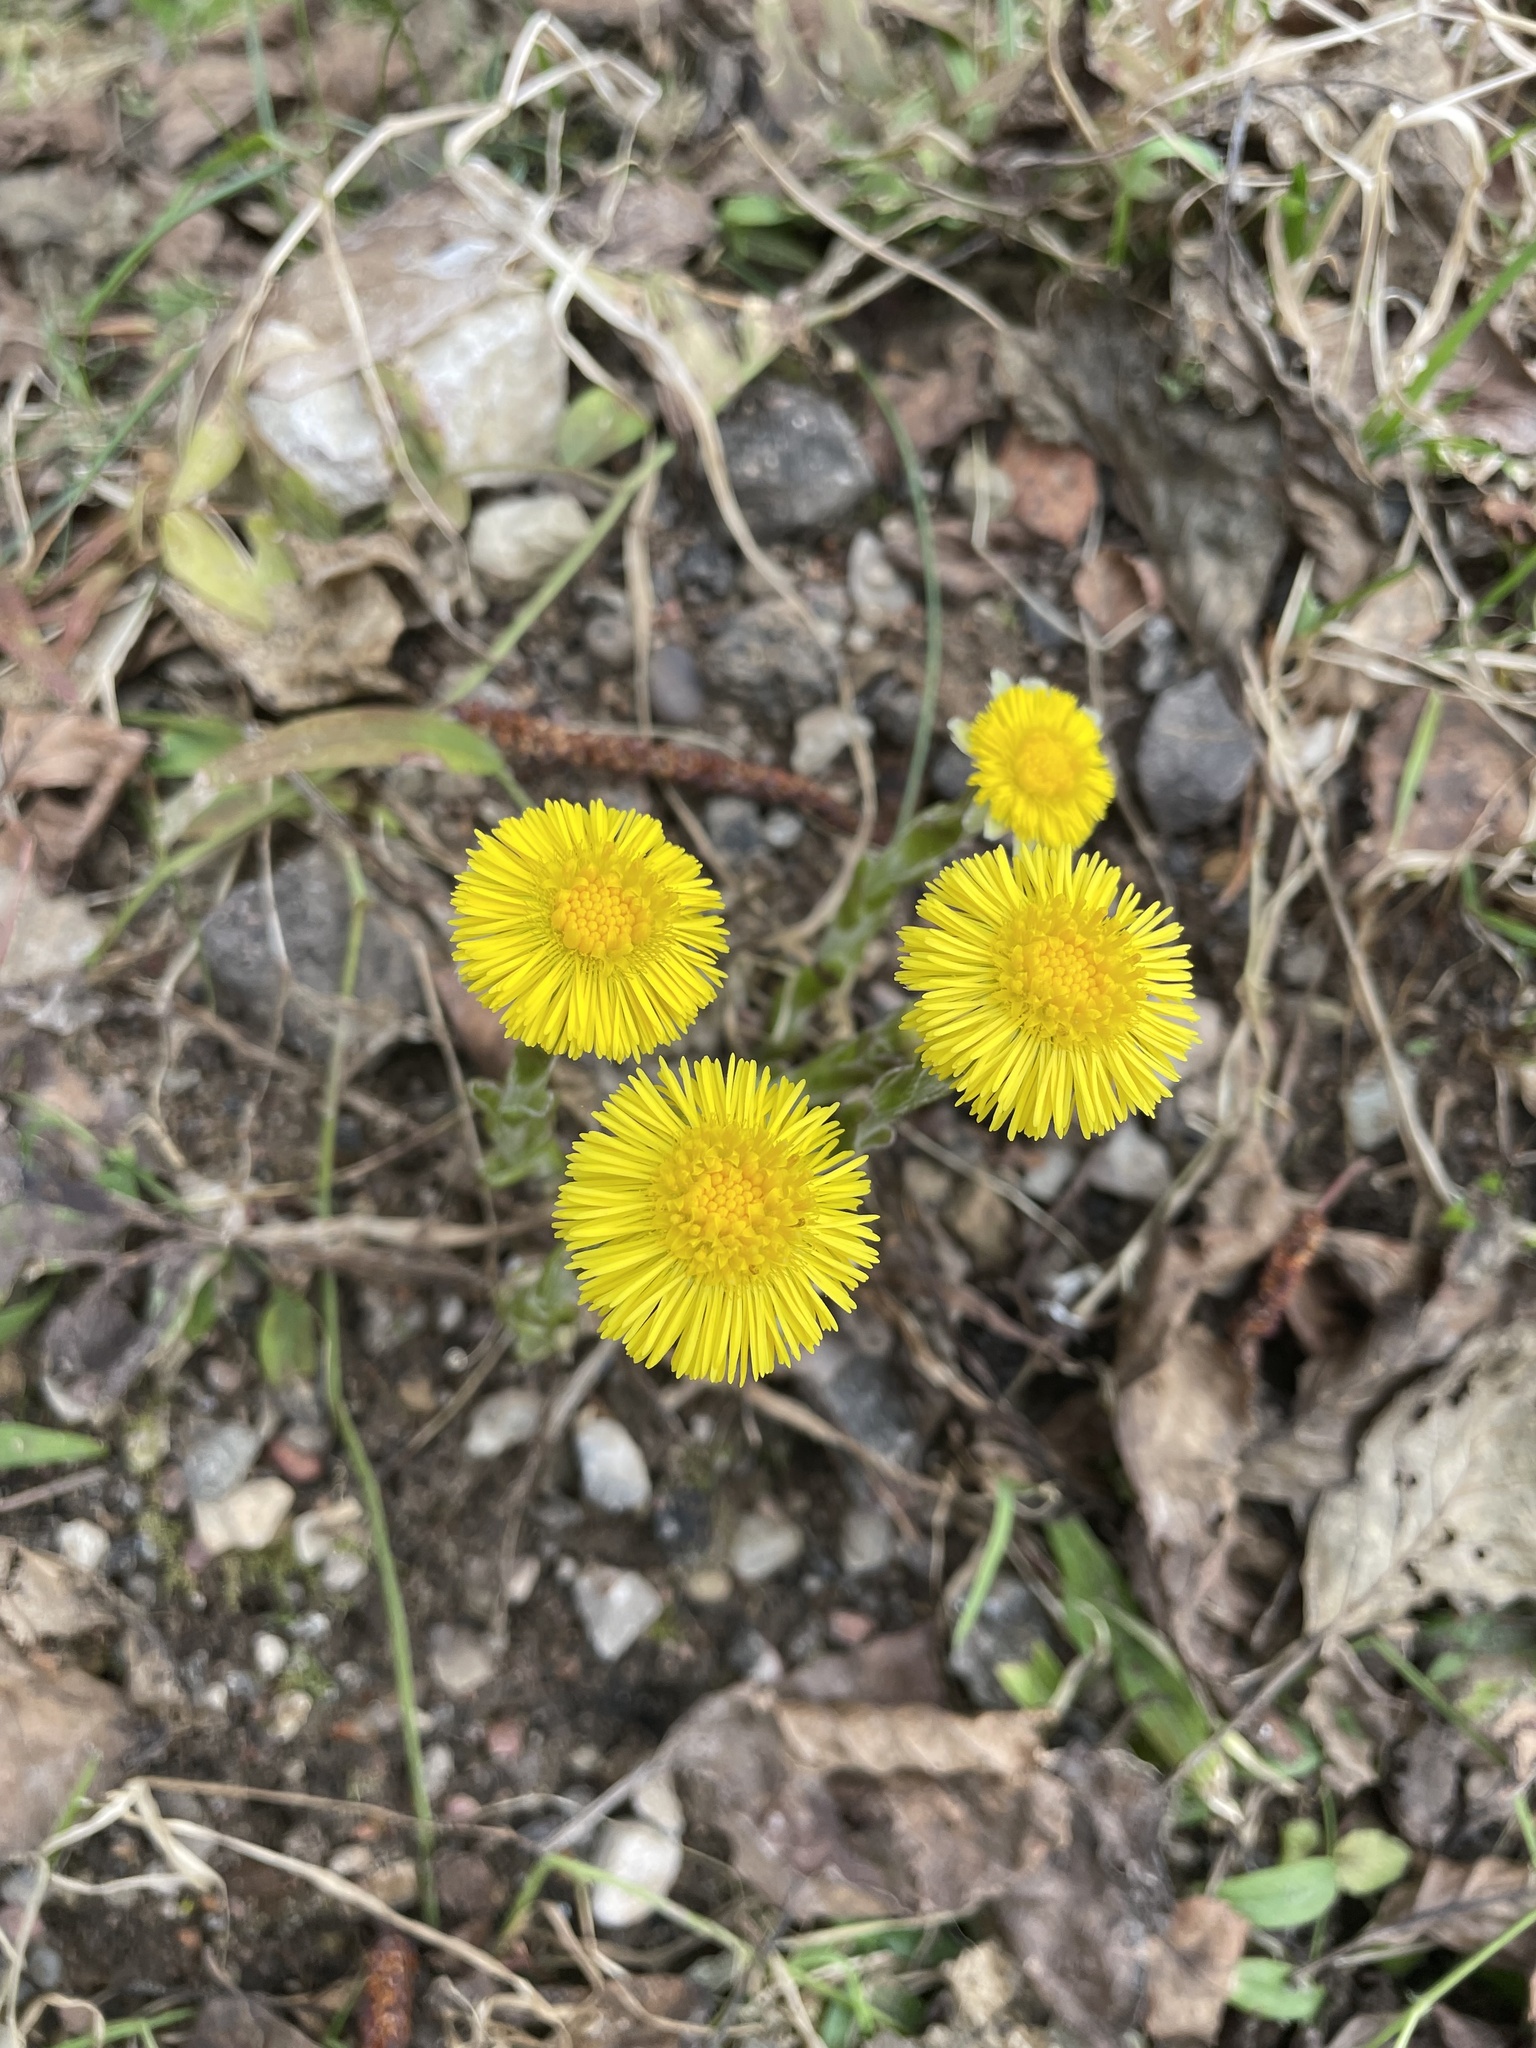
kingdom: Plantae
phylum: Tracheophyta
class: Magnoliopsida
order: Asterales
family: Asteraceae
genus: Tussilago
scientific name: Tussilago farfara
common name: Coltsfoot
